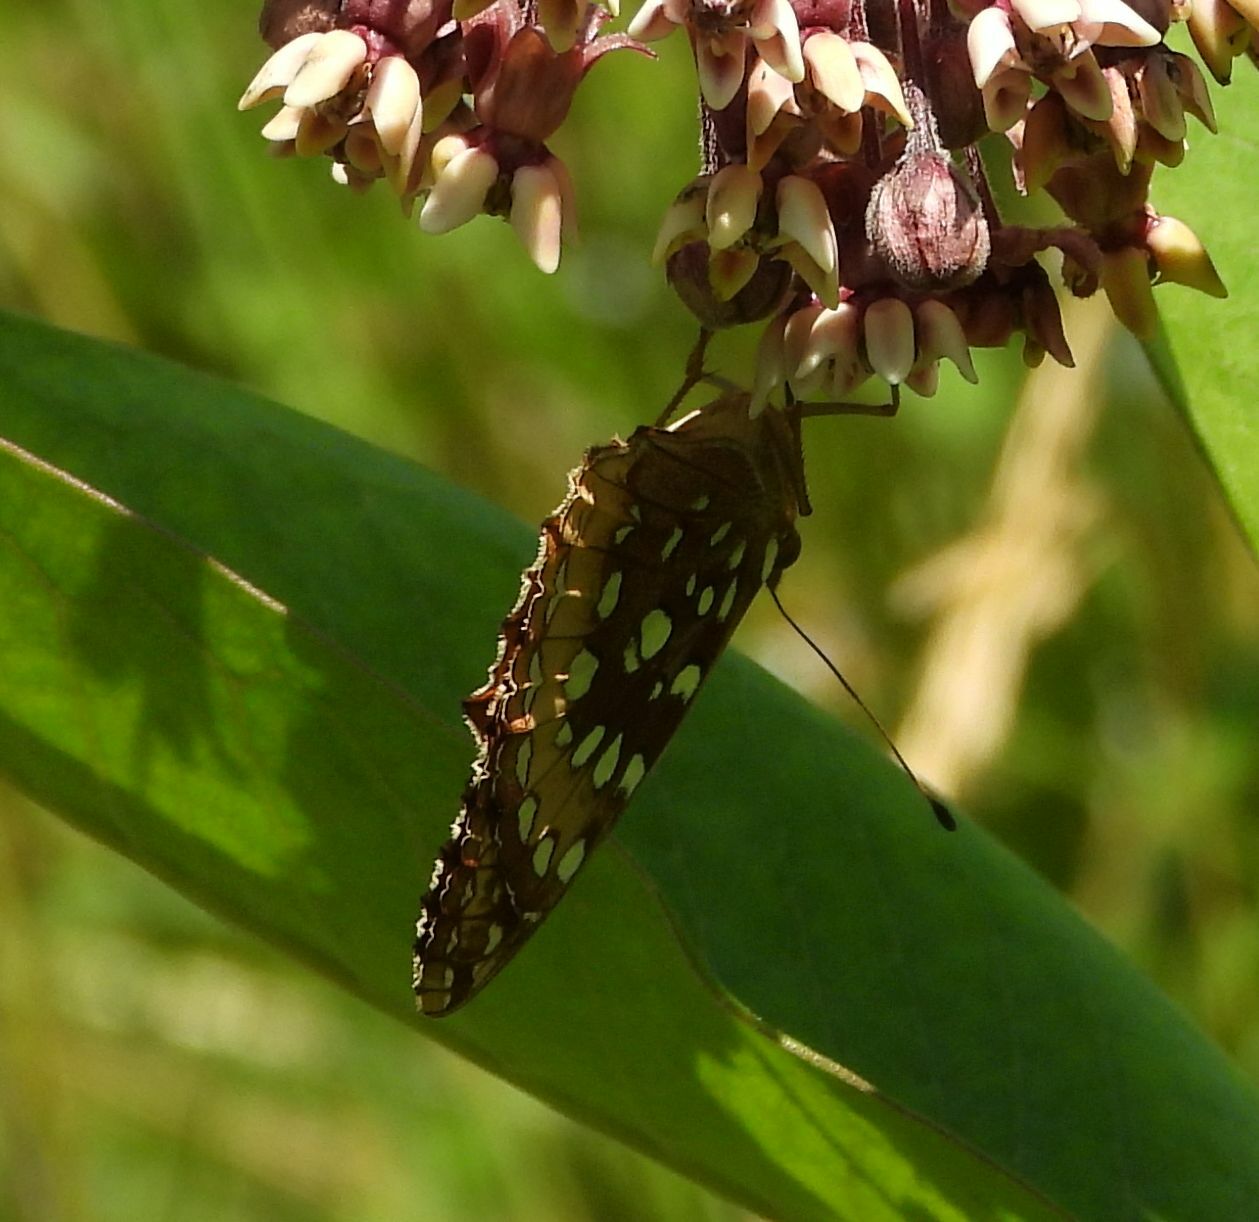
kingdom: Animalia
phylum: Arthropoda
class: Insecta
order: Lepidoptera
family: Nymphalidae
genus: Speyeria
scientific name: Speyeria cybele
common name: Great spangled fritillary
